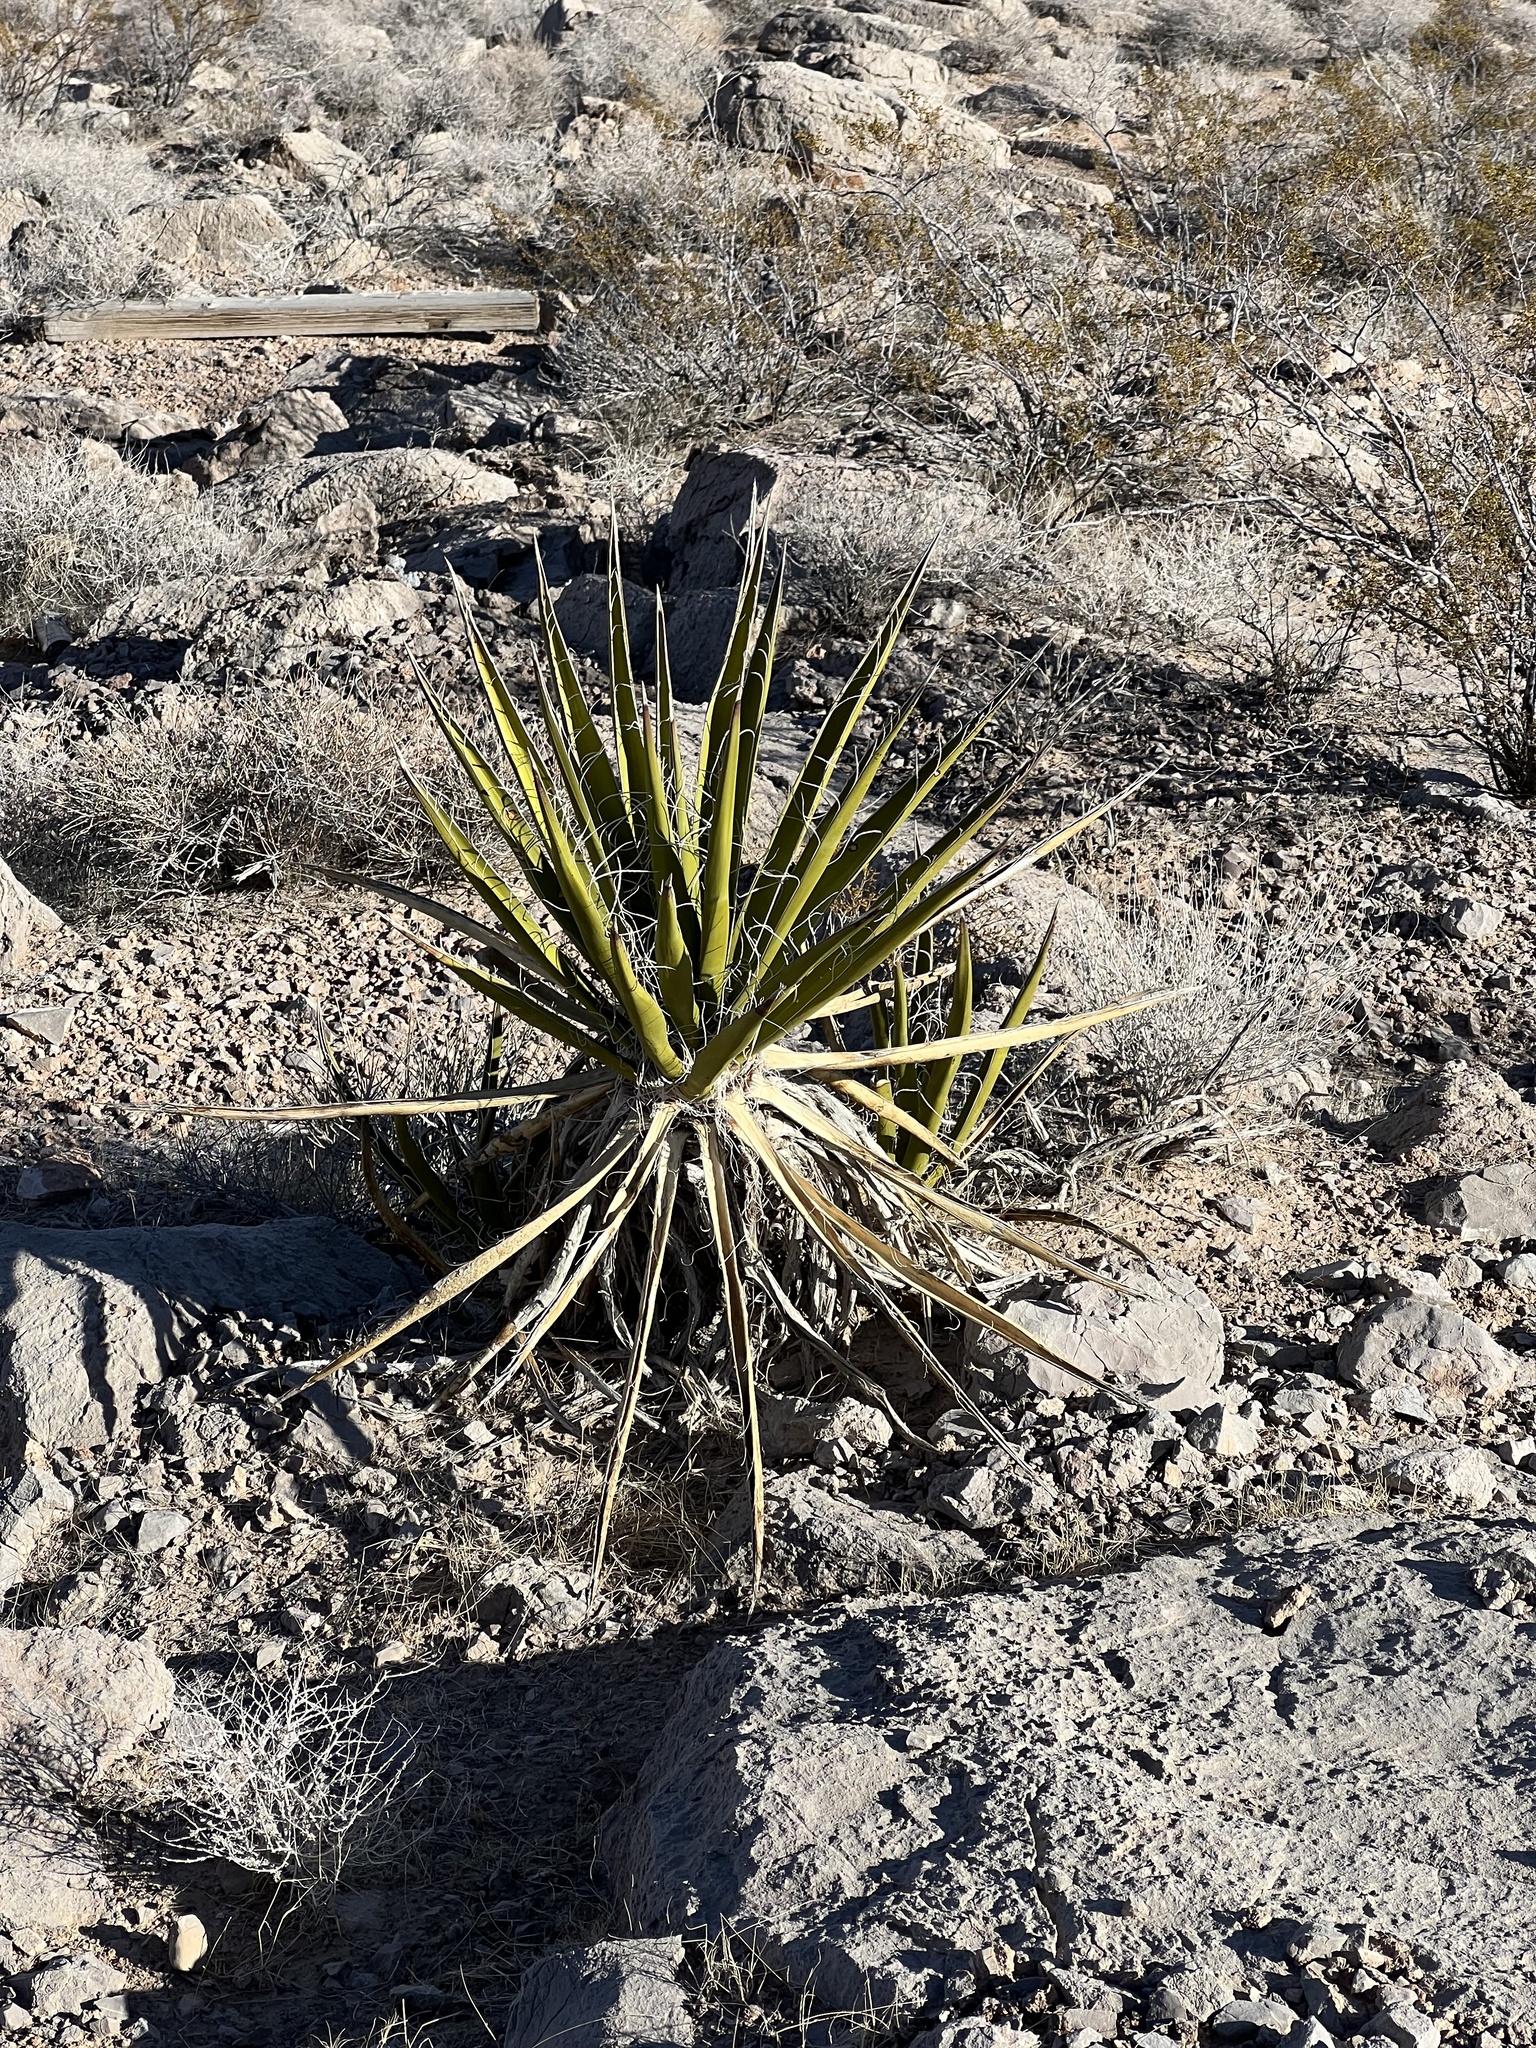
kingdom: Plantae
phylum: Tracheophyta
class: Liliopsida
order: Asparagales
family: Asparagaceae
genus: Yucca
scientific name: Yucca schidigera
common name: Mojave yucca
